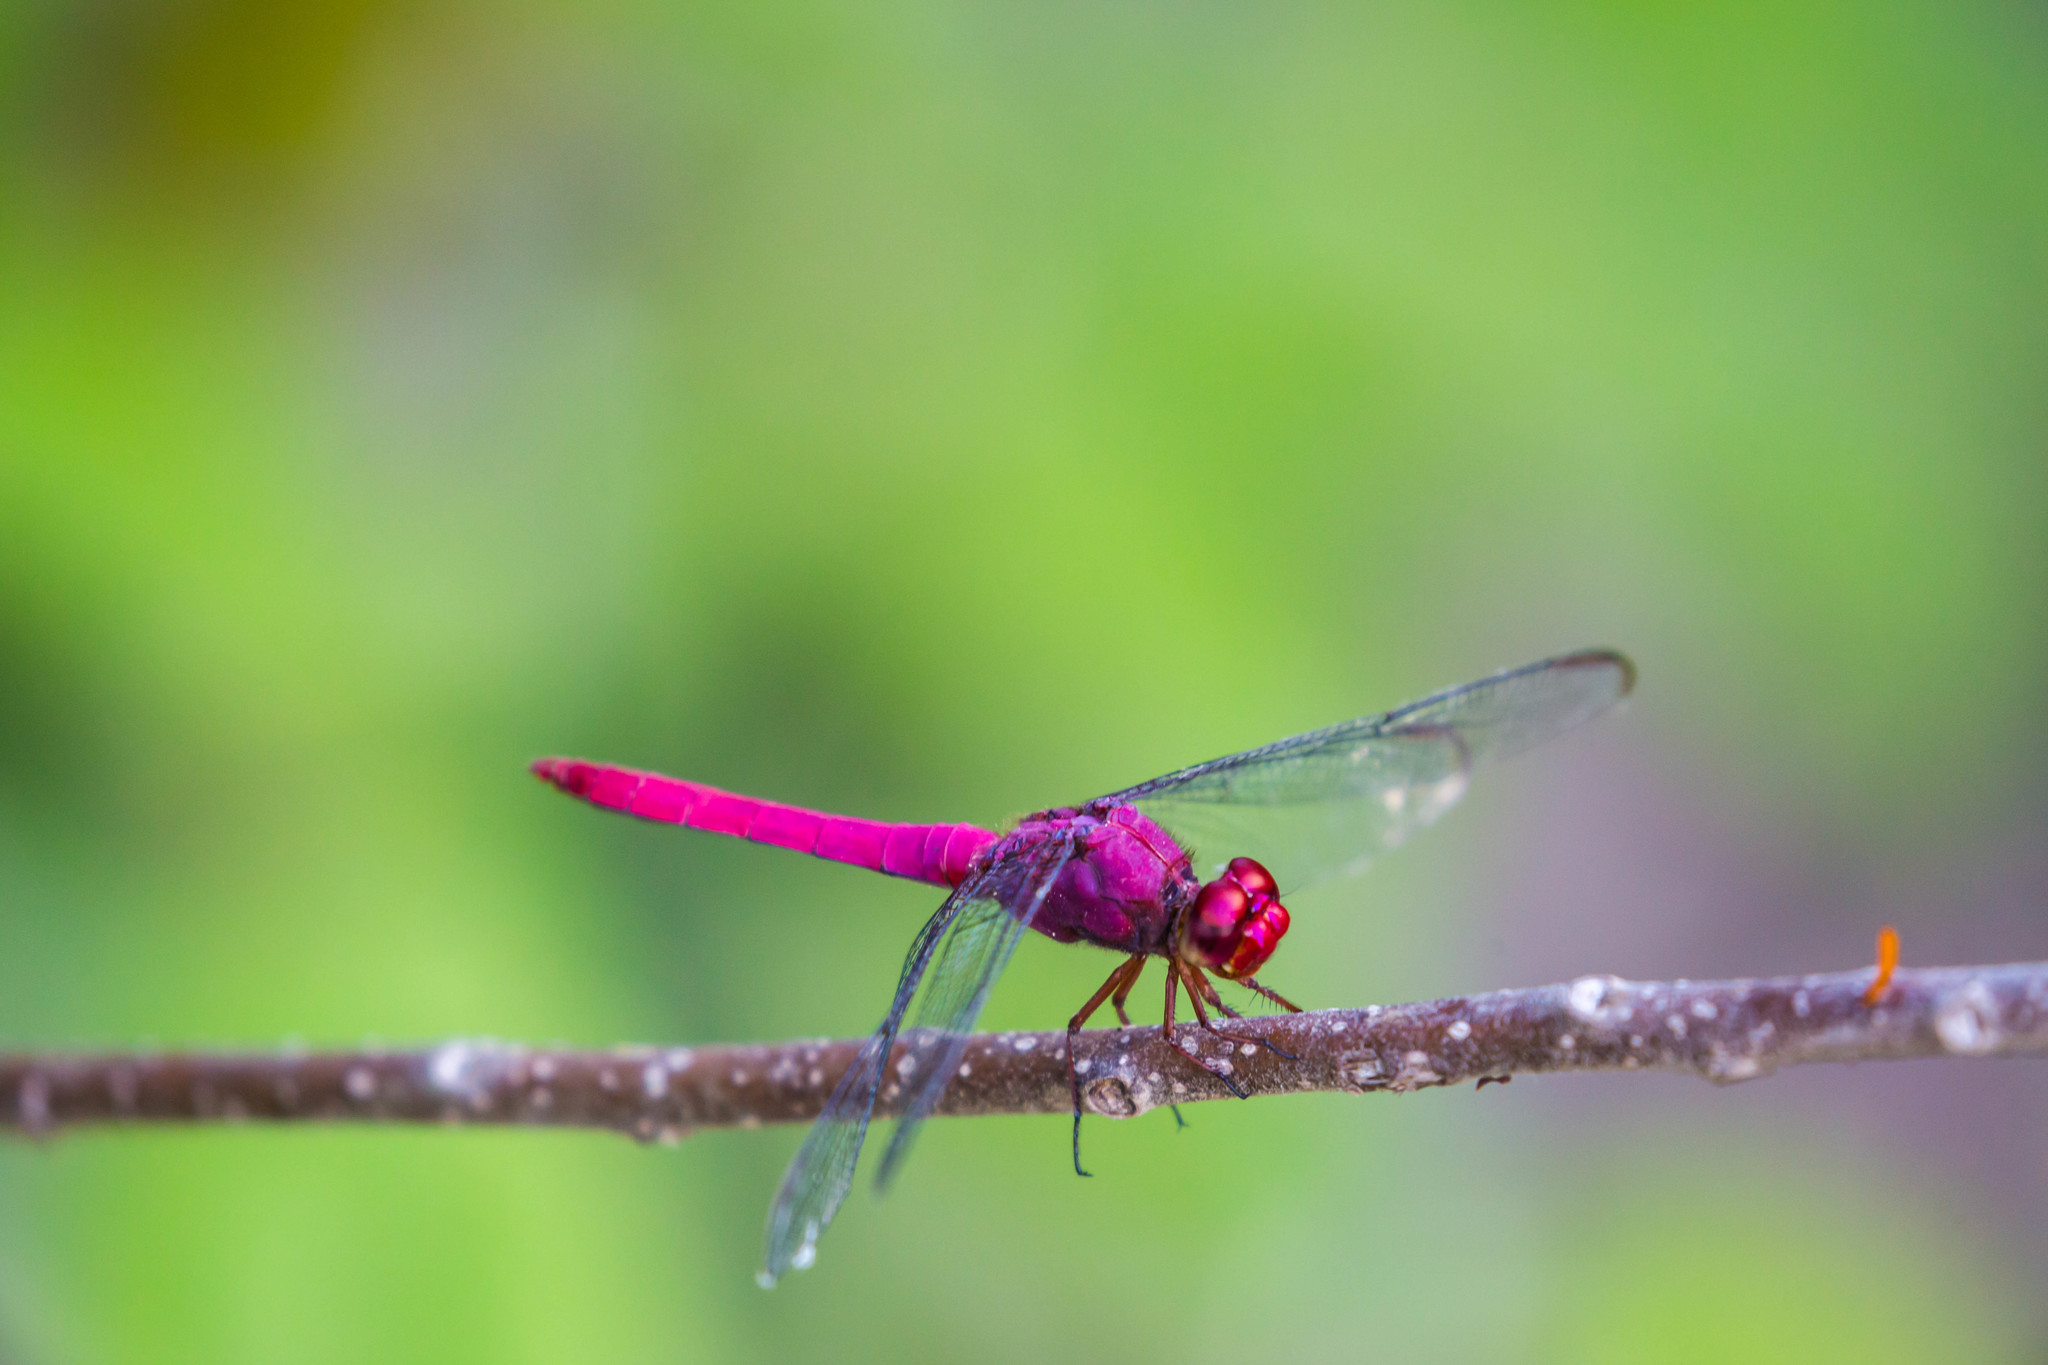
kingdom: Animalia
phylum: Arthropoda
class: Insecta
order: Odonata
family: Libellulidae
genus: Orthemis
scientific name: Orthemis discolor
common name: Carmine skimmer
